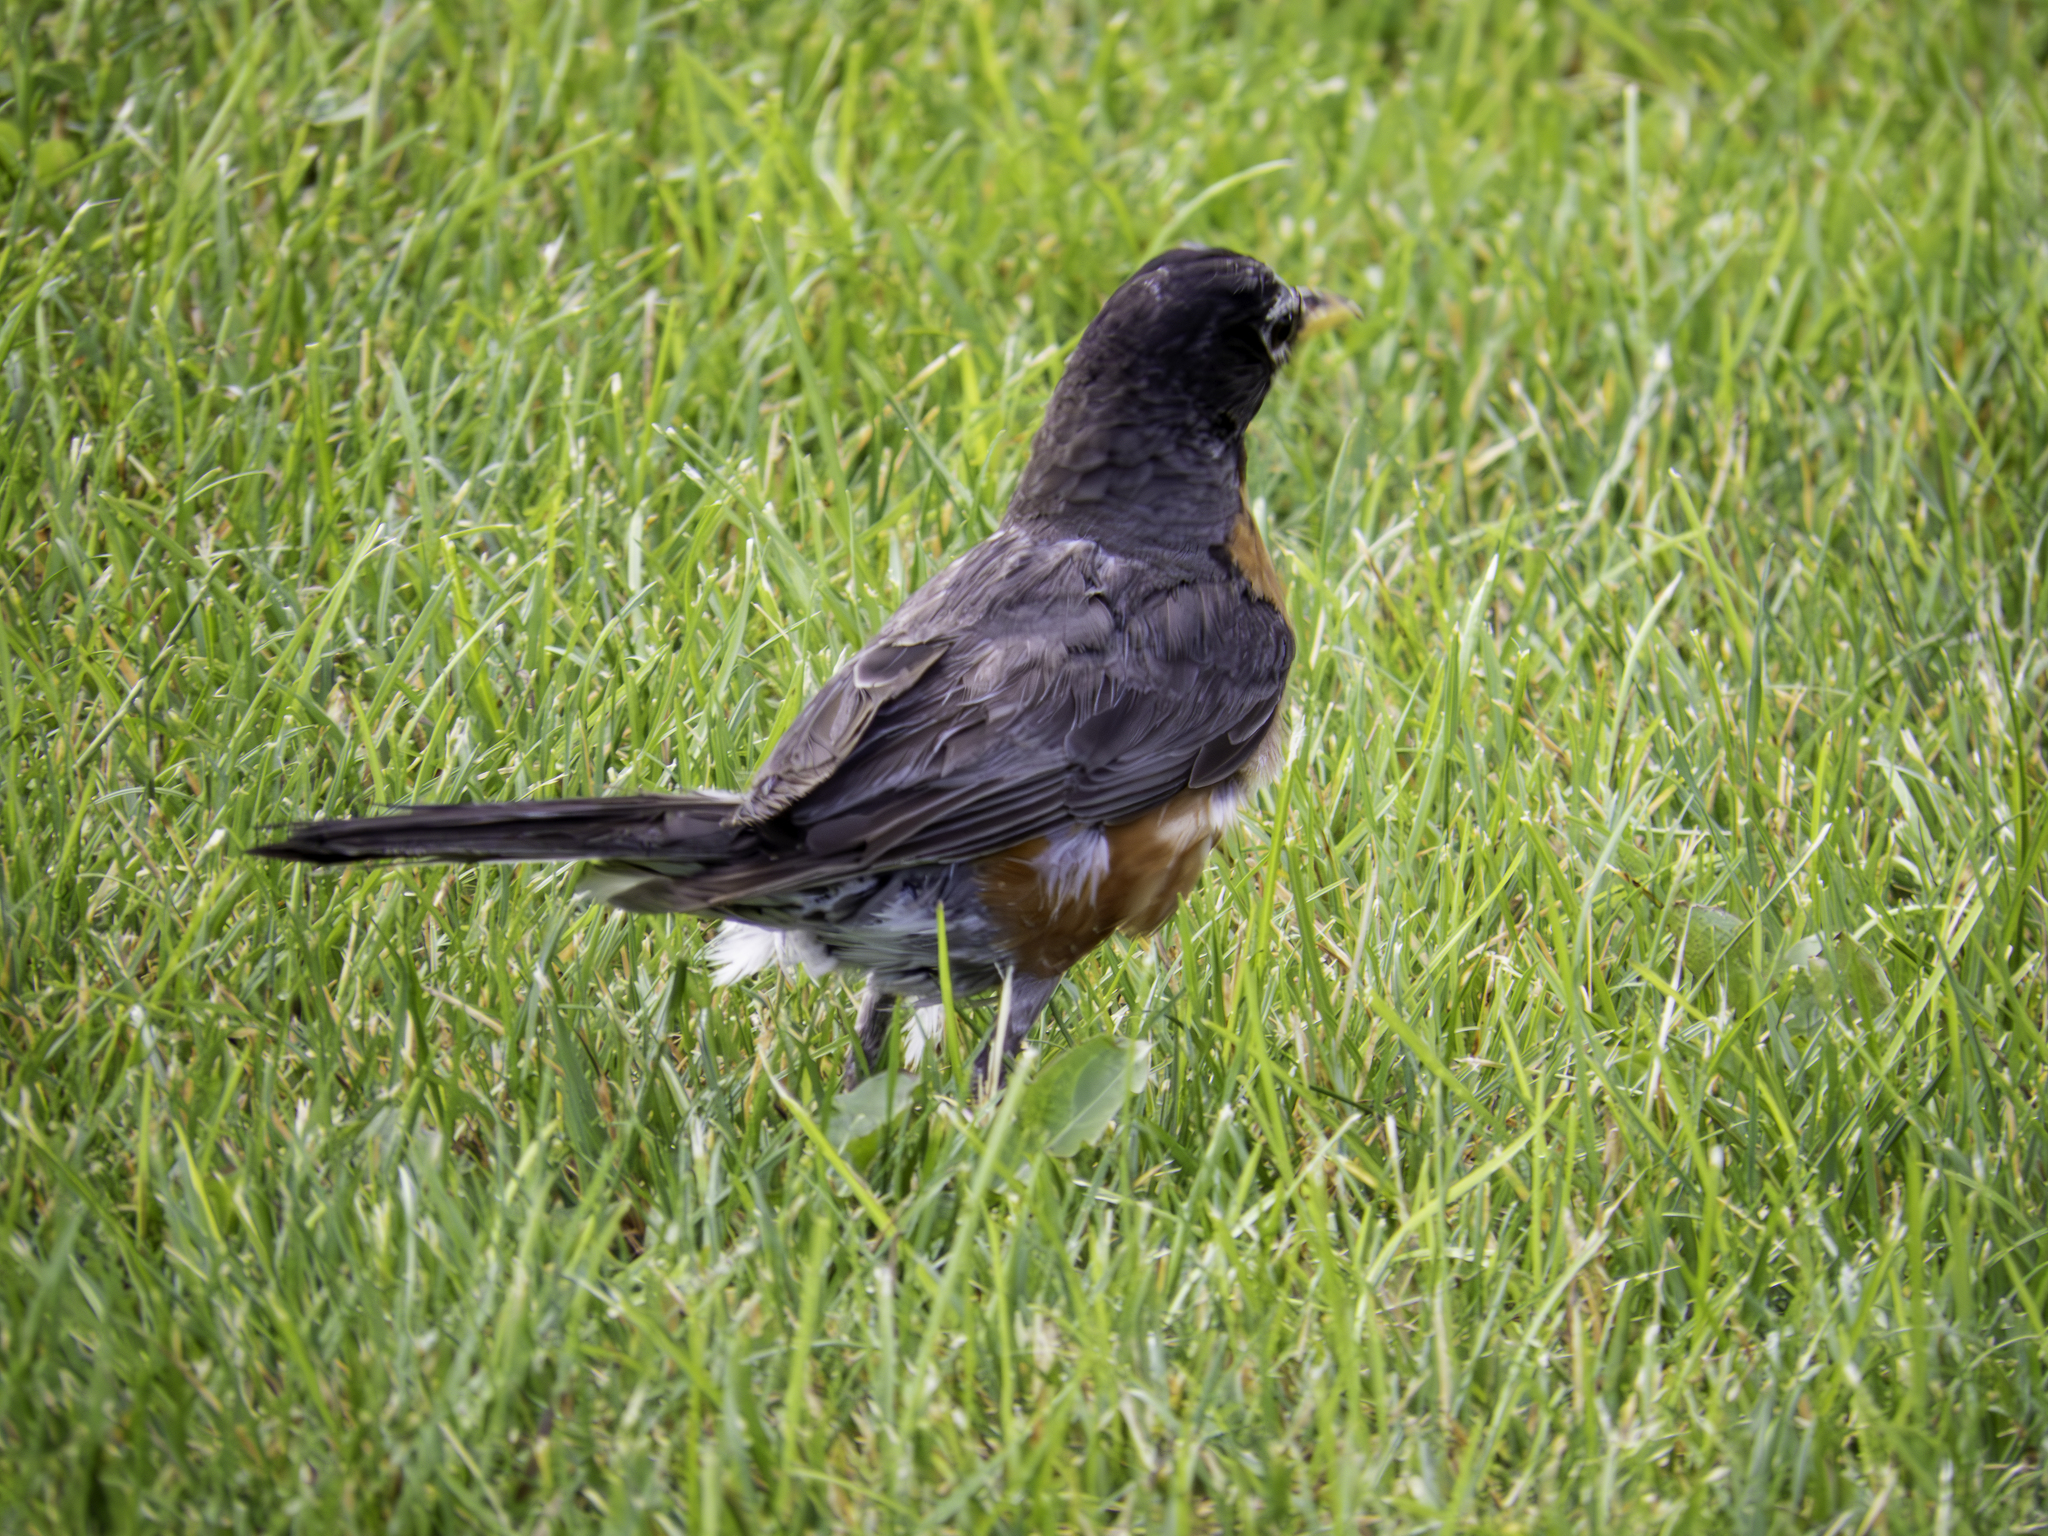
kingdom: Animalia
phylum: Chordata
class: Aves
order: Passeriformes
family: Turdidae
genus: Turdus
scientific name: Turdus migratorius
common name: American robin
